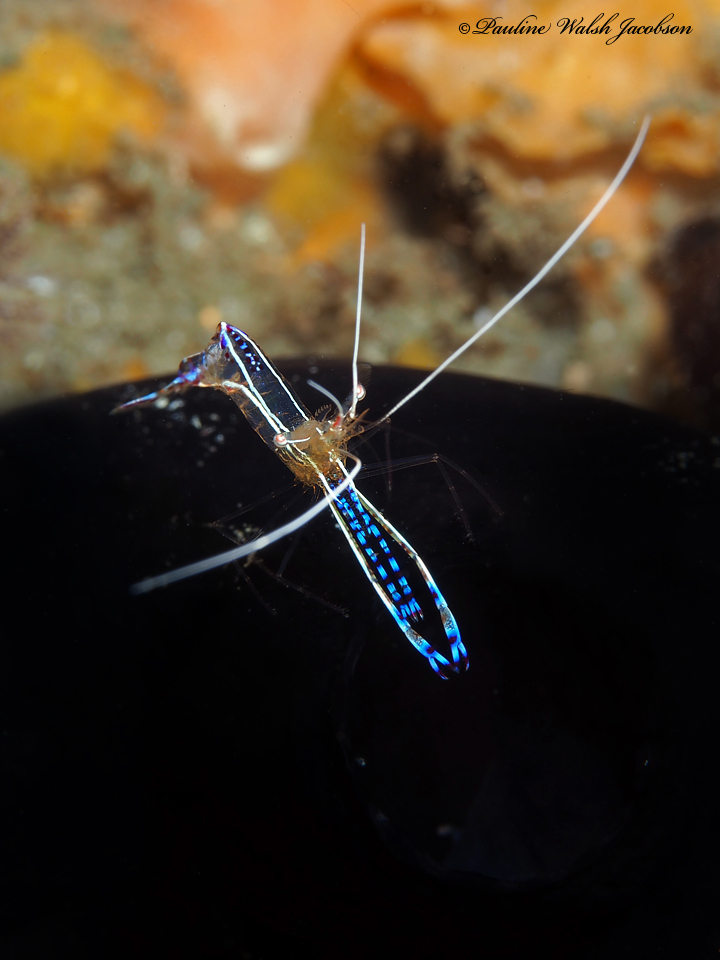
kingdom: Animalia
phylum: Arthropoda
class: Malacostraca
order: Decapoda
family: Palaemonidae
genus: Ancylomenes
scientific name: Ancylomenes pedersoni
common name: Pederson's cleaning shrimp
